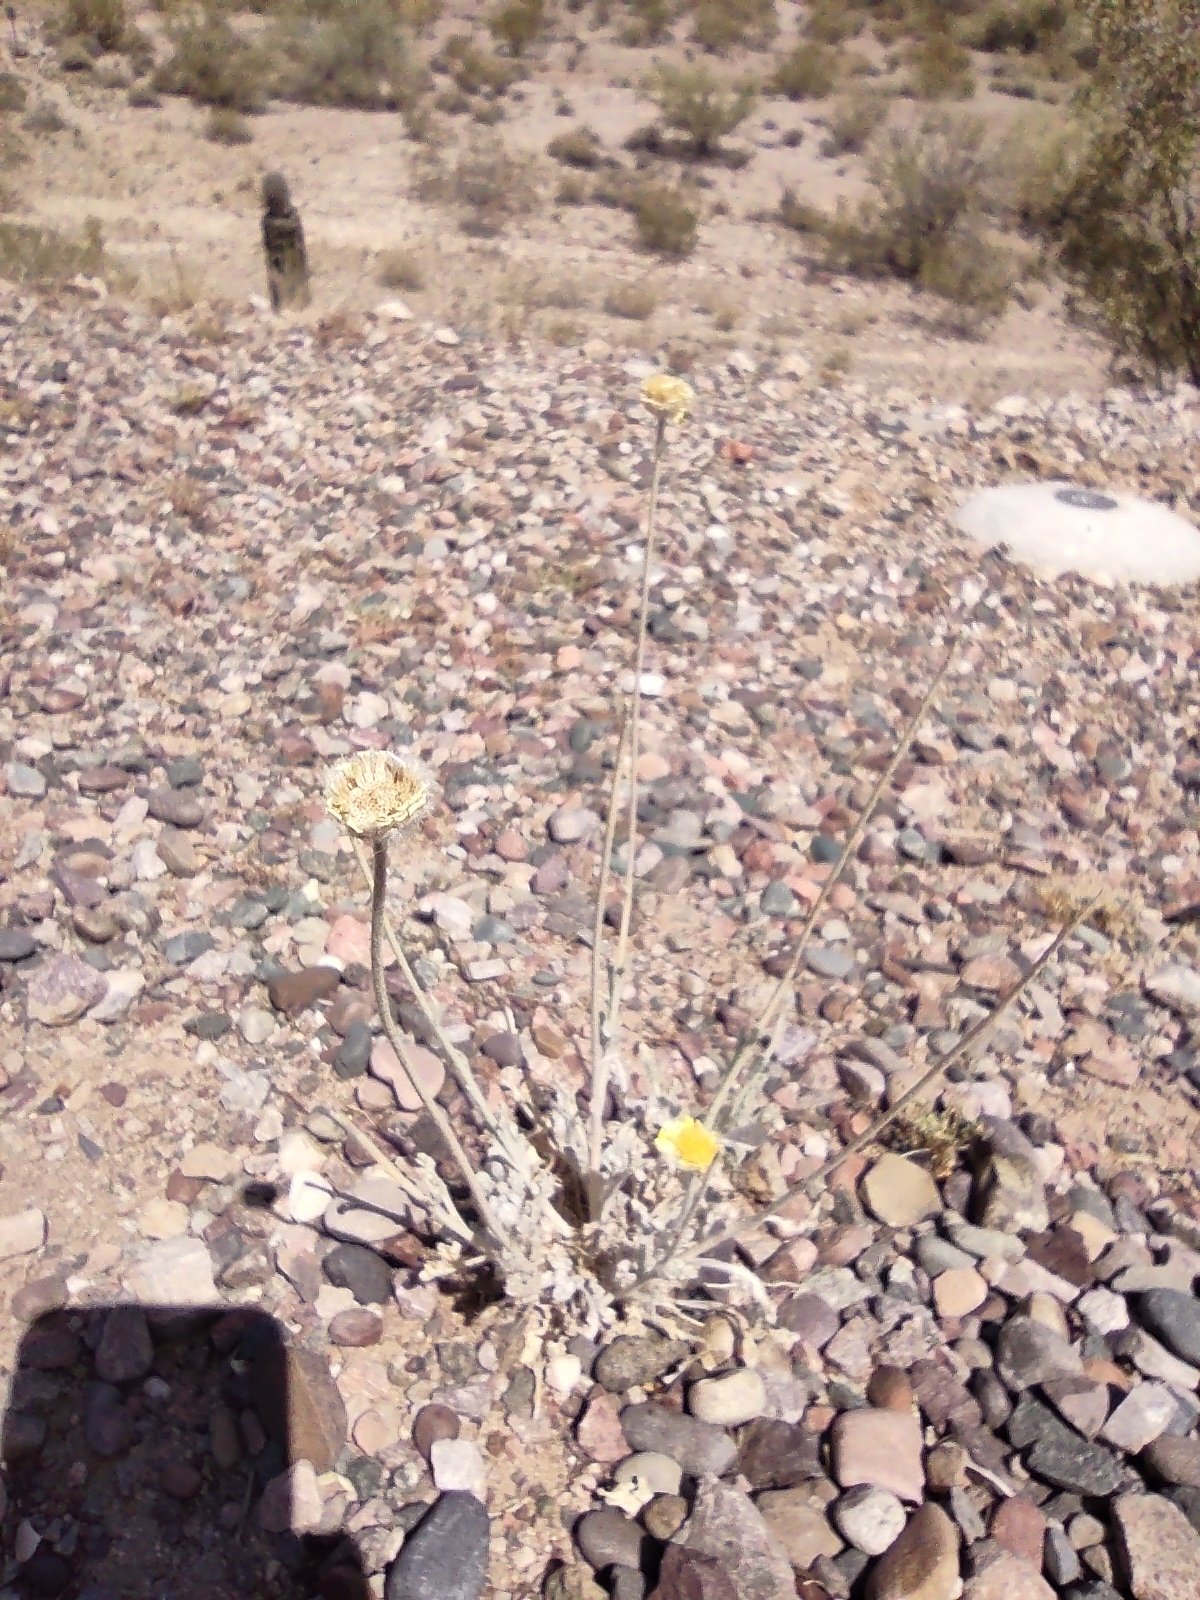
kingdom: Plantae
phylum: Tracheophyta
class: Magnoliopsida
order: Asterales
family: Asteraceae
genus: Baileya
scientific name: Baileya multiradiata
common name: Desert-marigold
